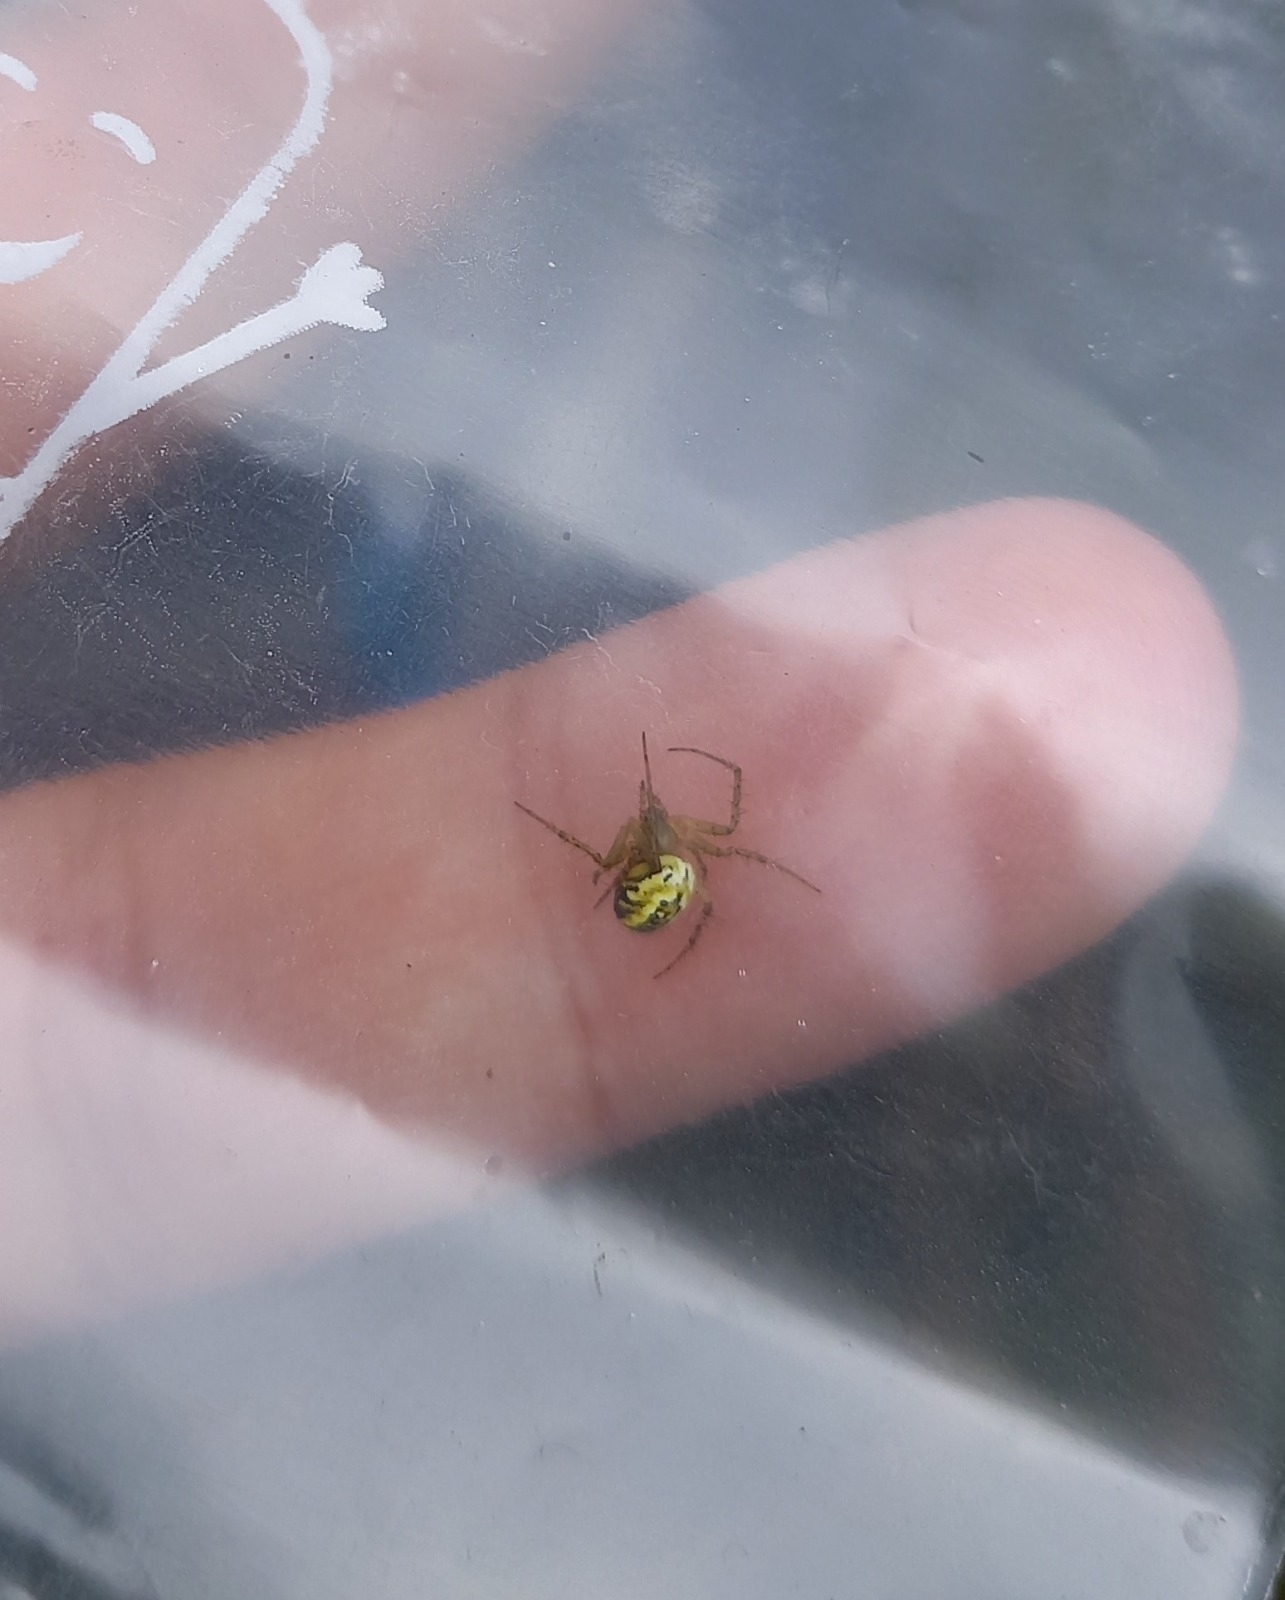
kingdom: Animalia
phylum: Arthropoda
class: Arachnida
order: Araneae
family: Araneidae
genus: Mangora
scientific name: Mangora acalypha
